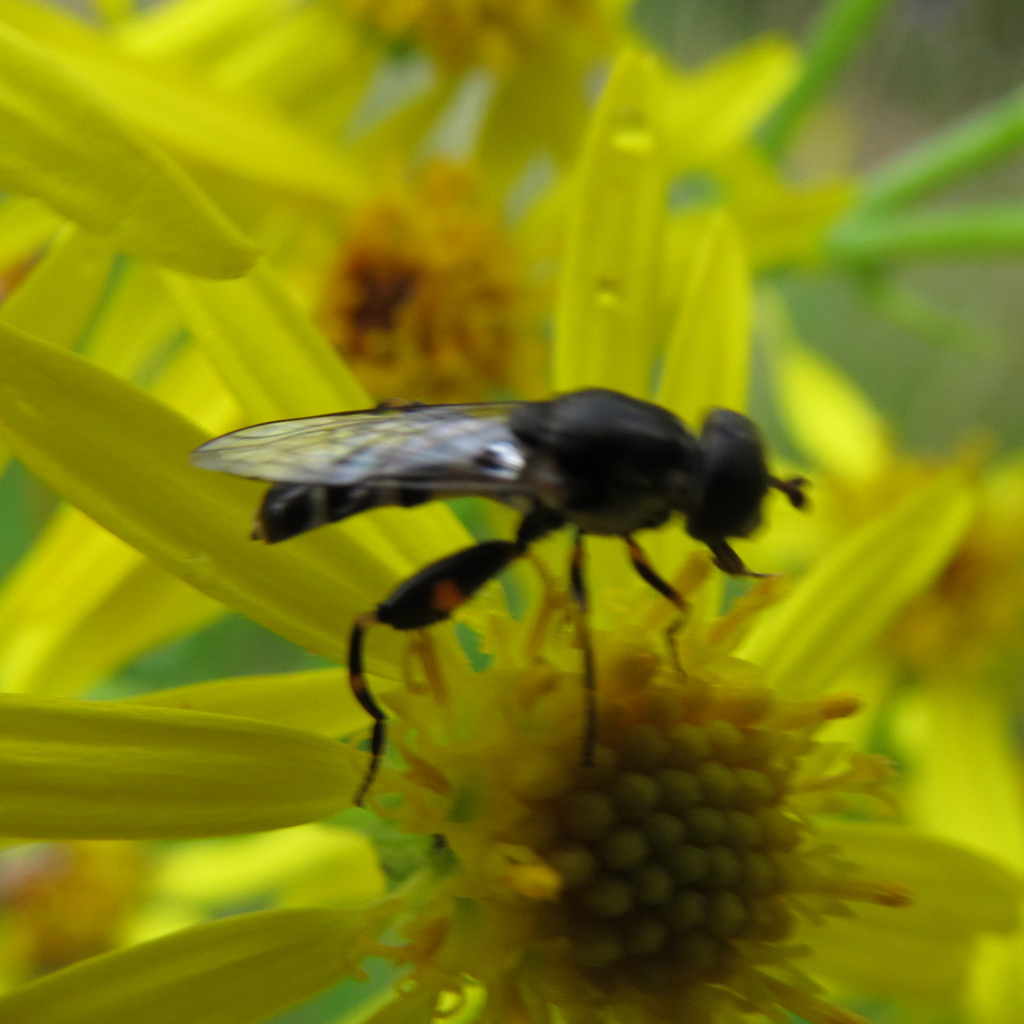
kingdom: Animalia
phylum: Arthropoda
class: Insecta
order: Diptera
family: Syrphidae
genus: Syritta
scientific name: Syritta pipiens
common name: Hover fly
